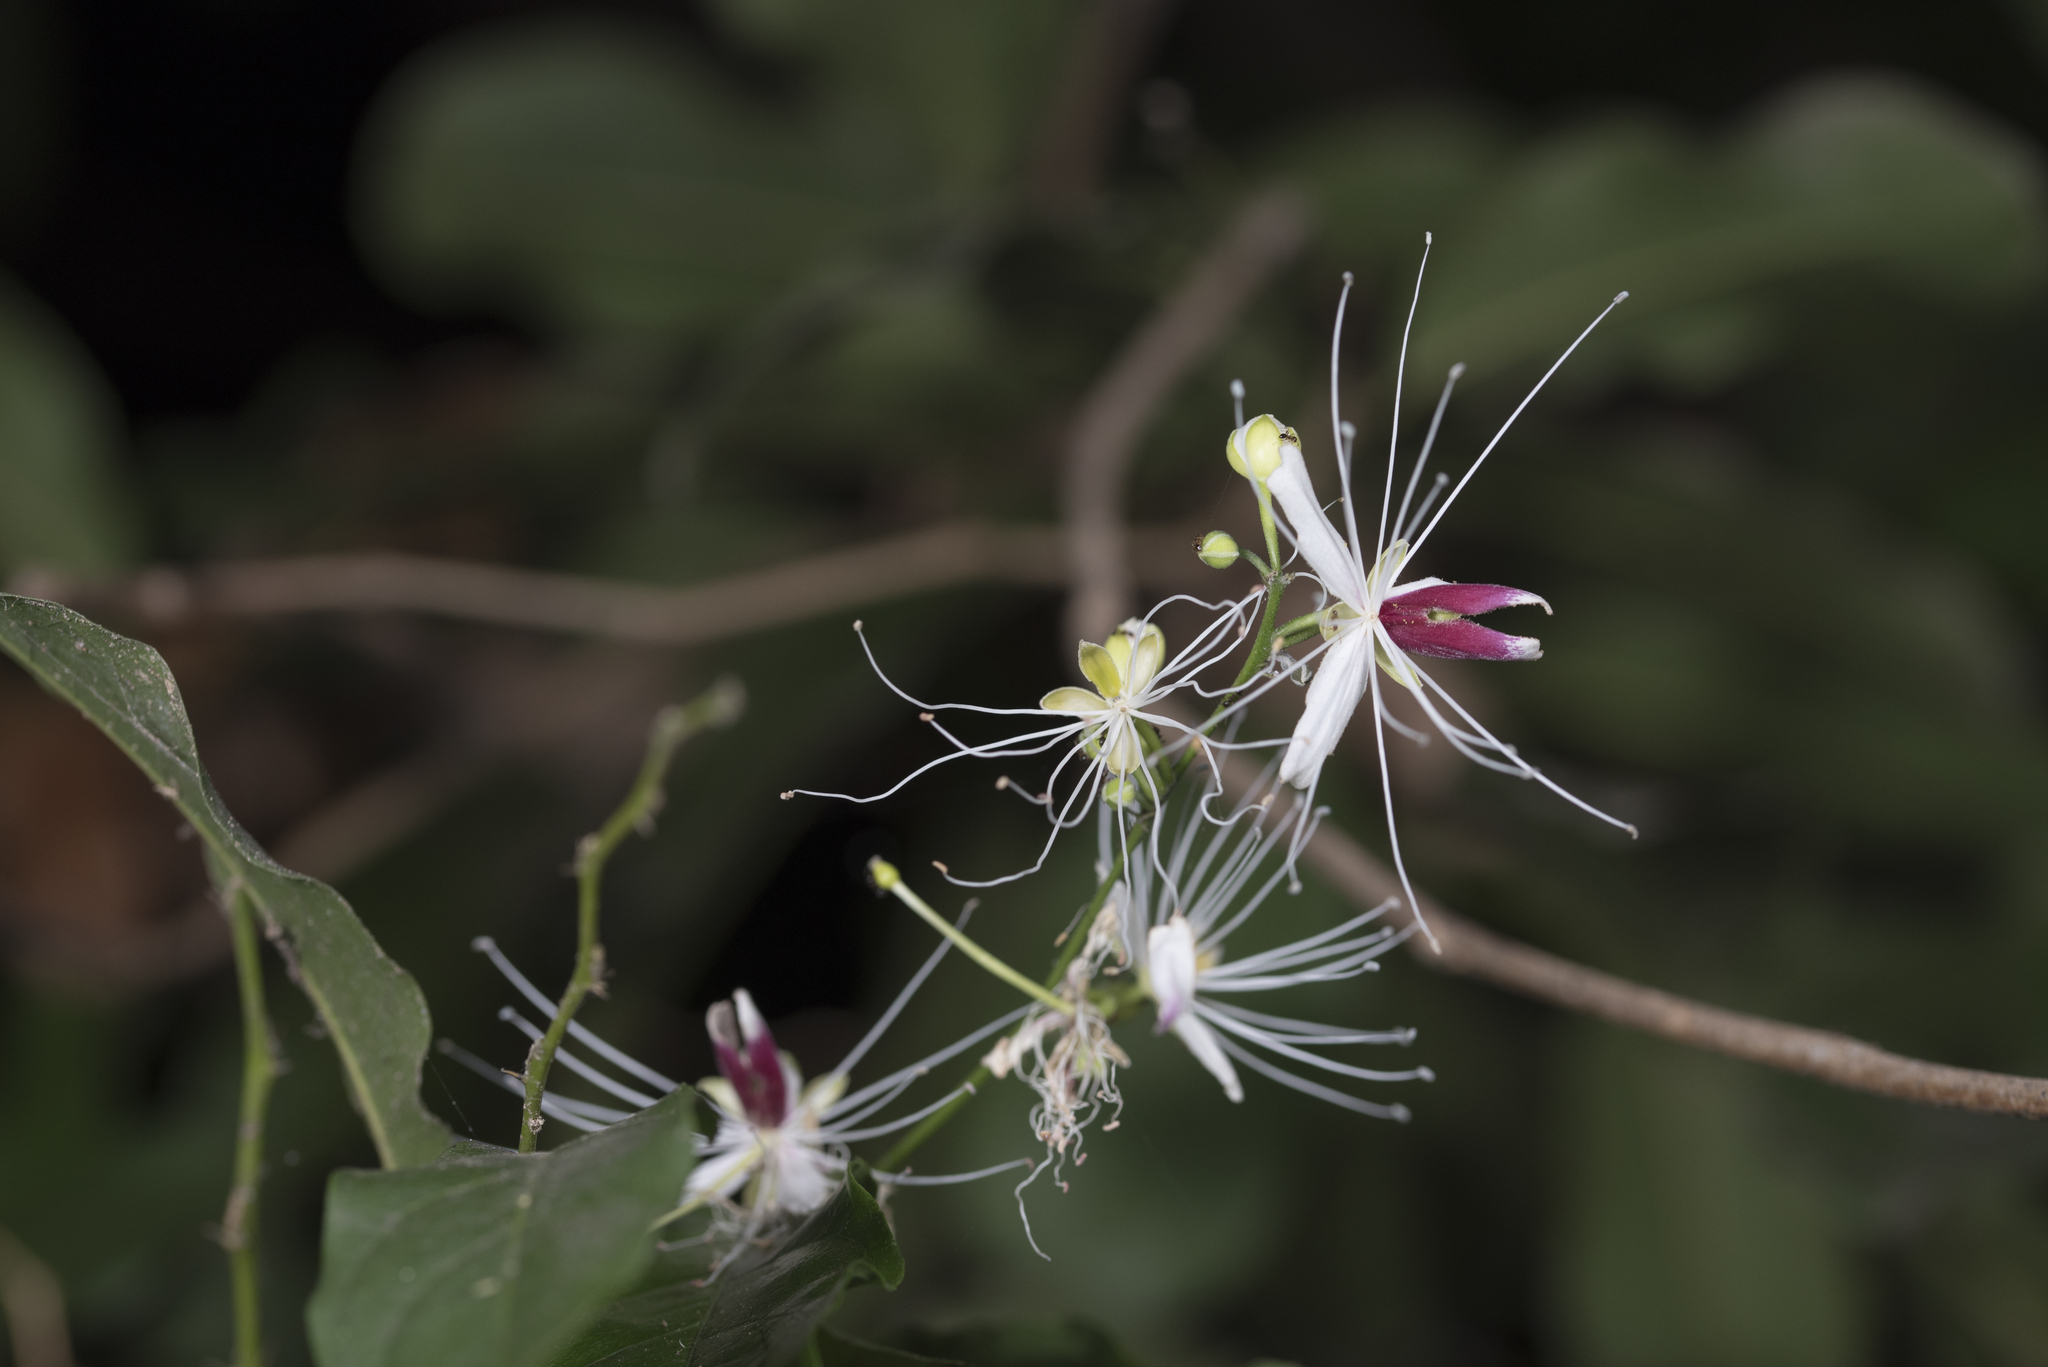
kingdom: Plantae
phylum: Tracheophyta
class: Magnoliopsida
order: Brassicales
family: Capparaceae
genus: Capparis
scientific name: Capparis henryi
